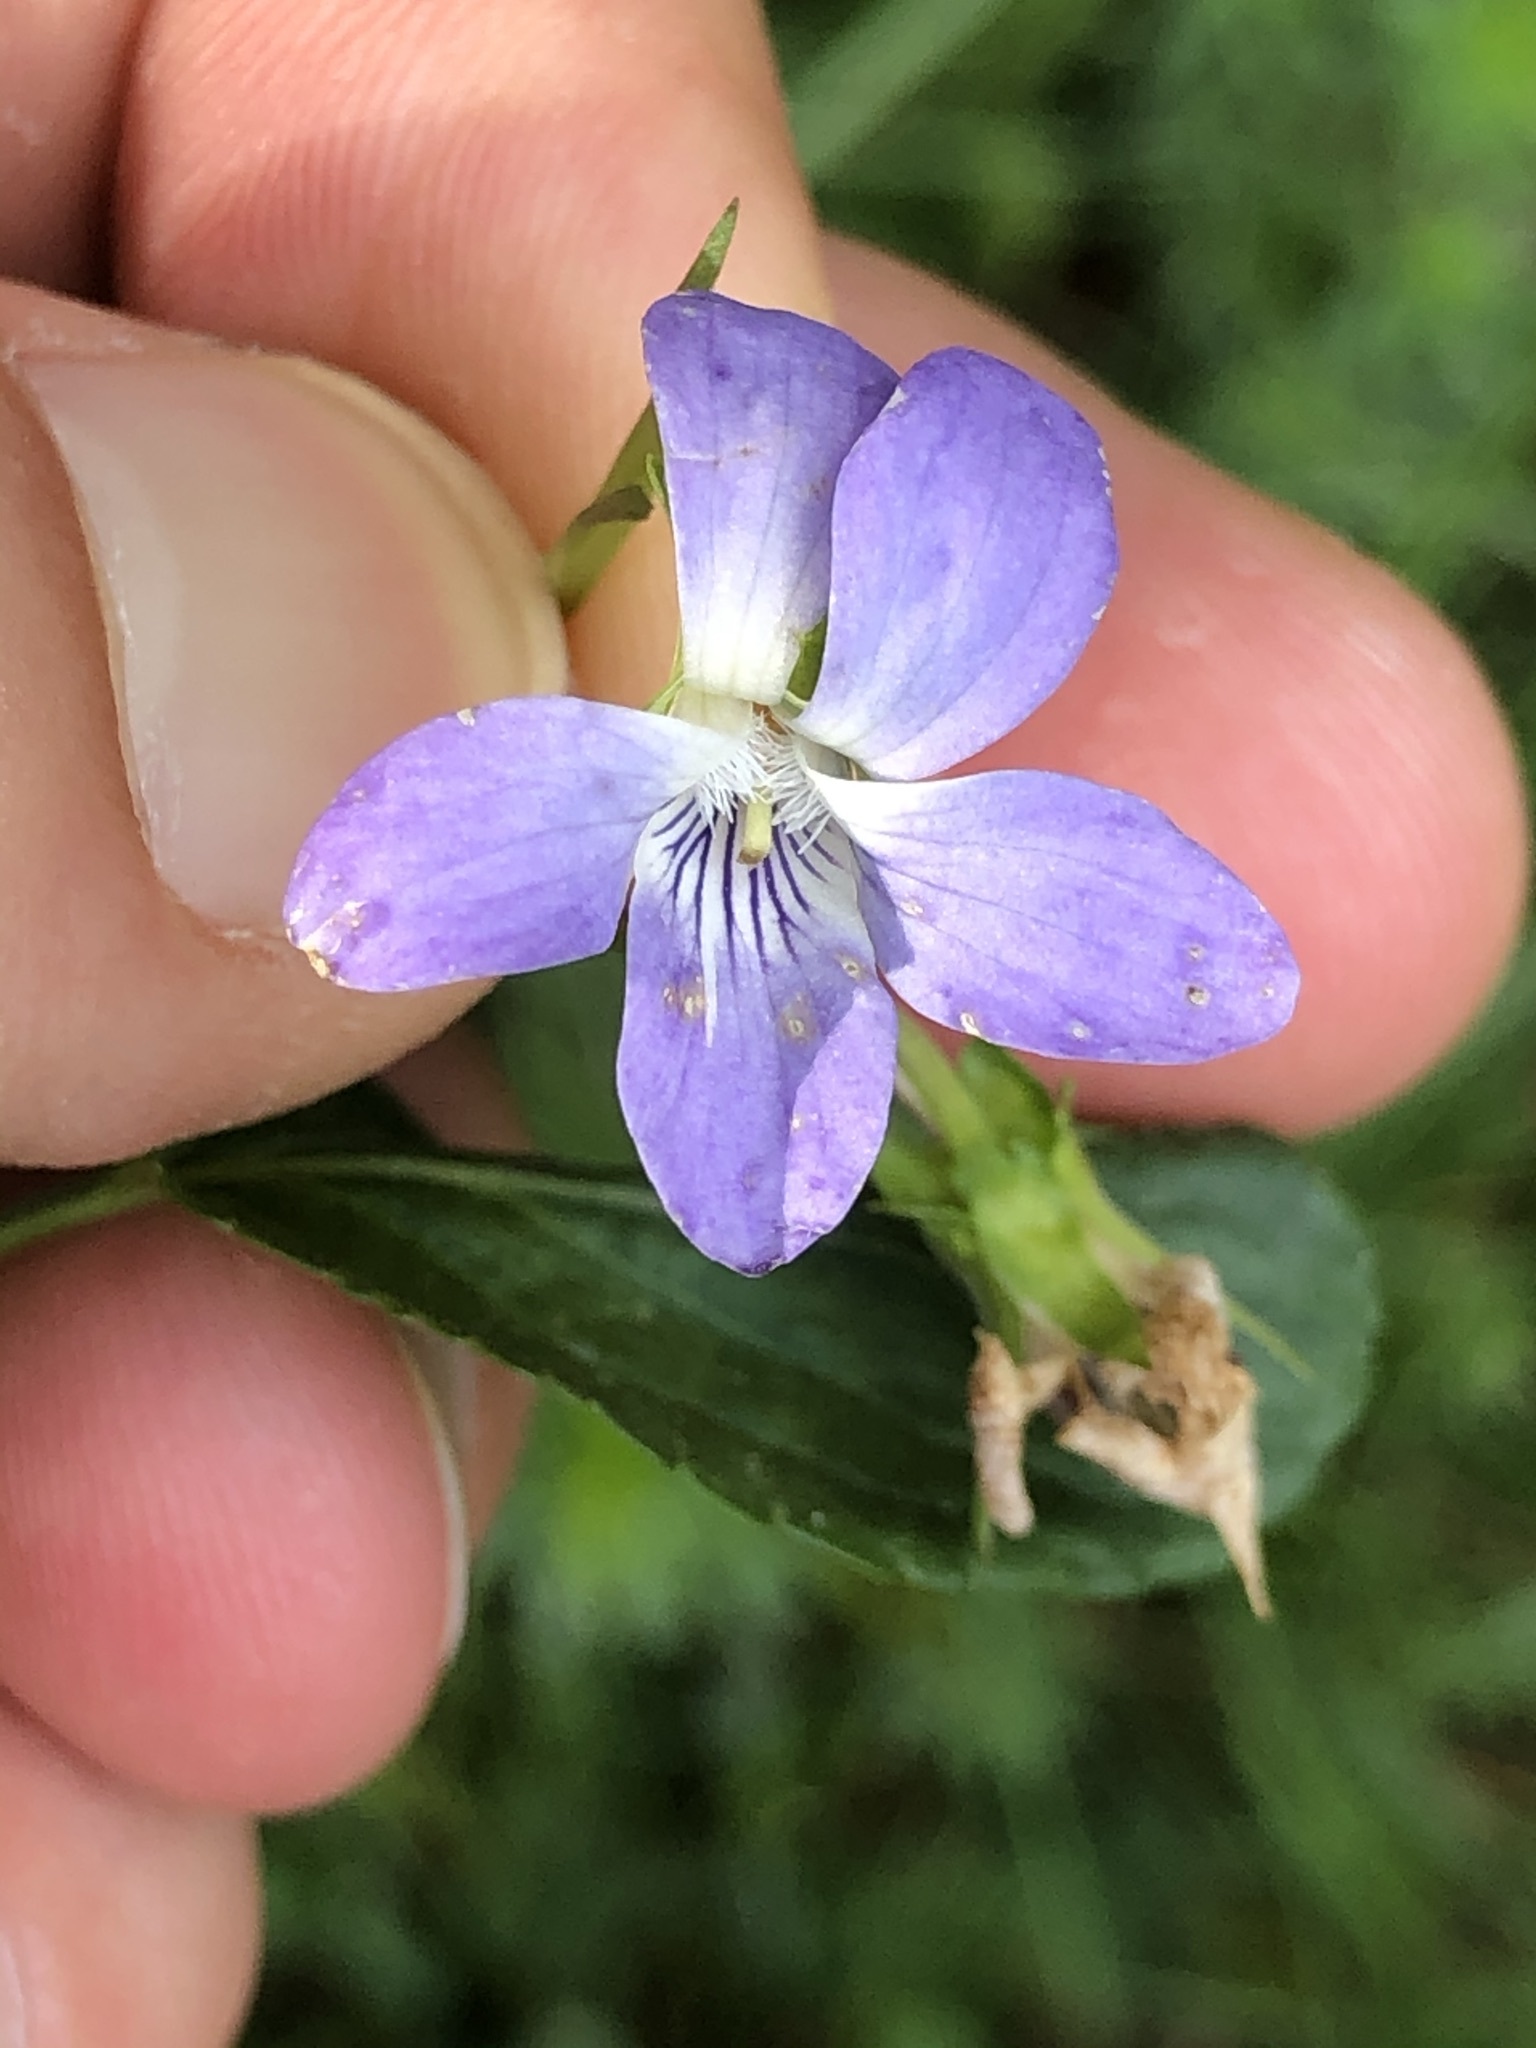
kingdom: Plantae
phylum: Tracheophyta
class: Magnoliopsida
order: Malpighiales
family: Violaceae
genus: Viola
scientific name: Viola canina
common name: Heath dog-violet
